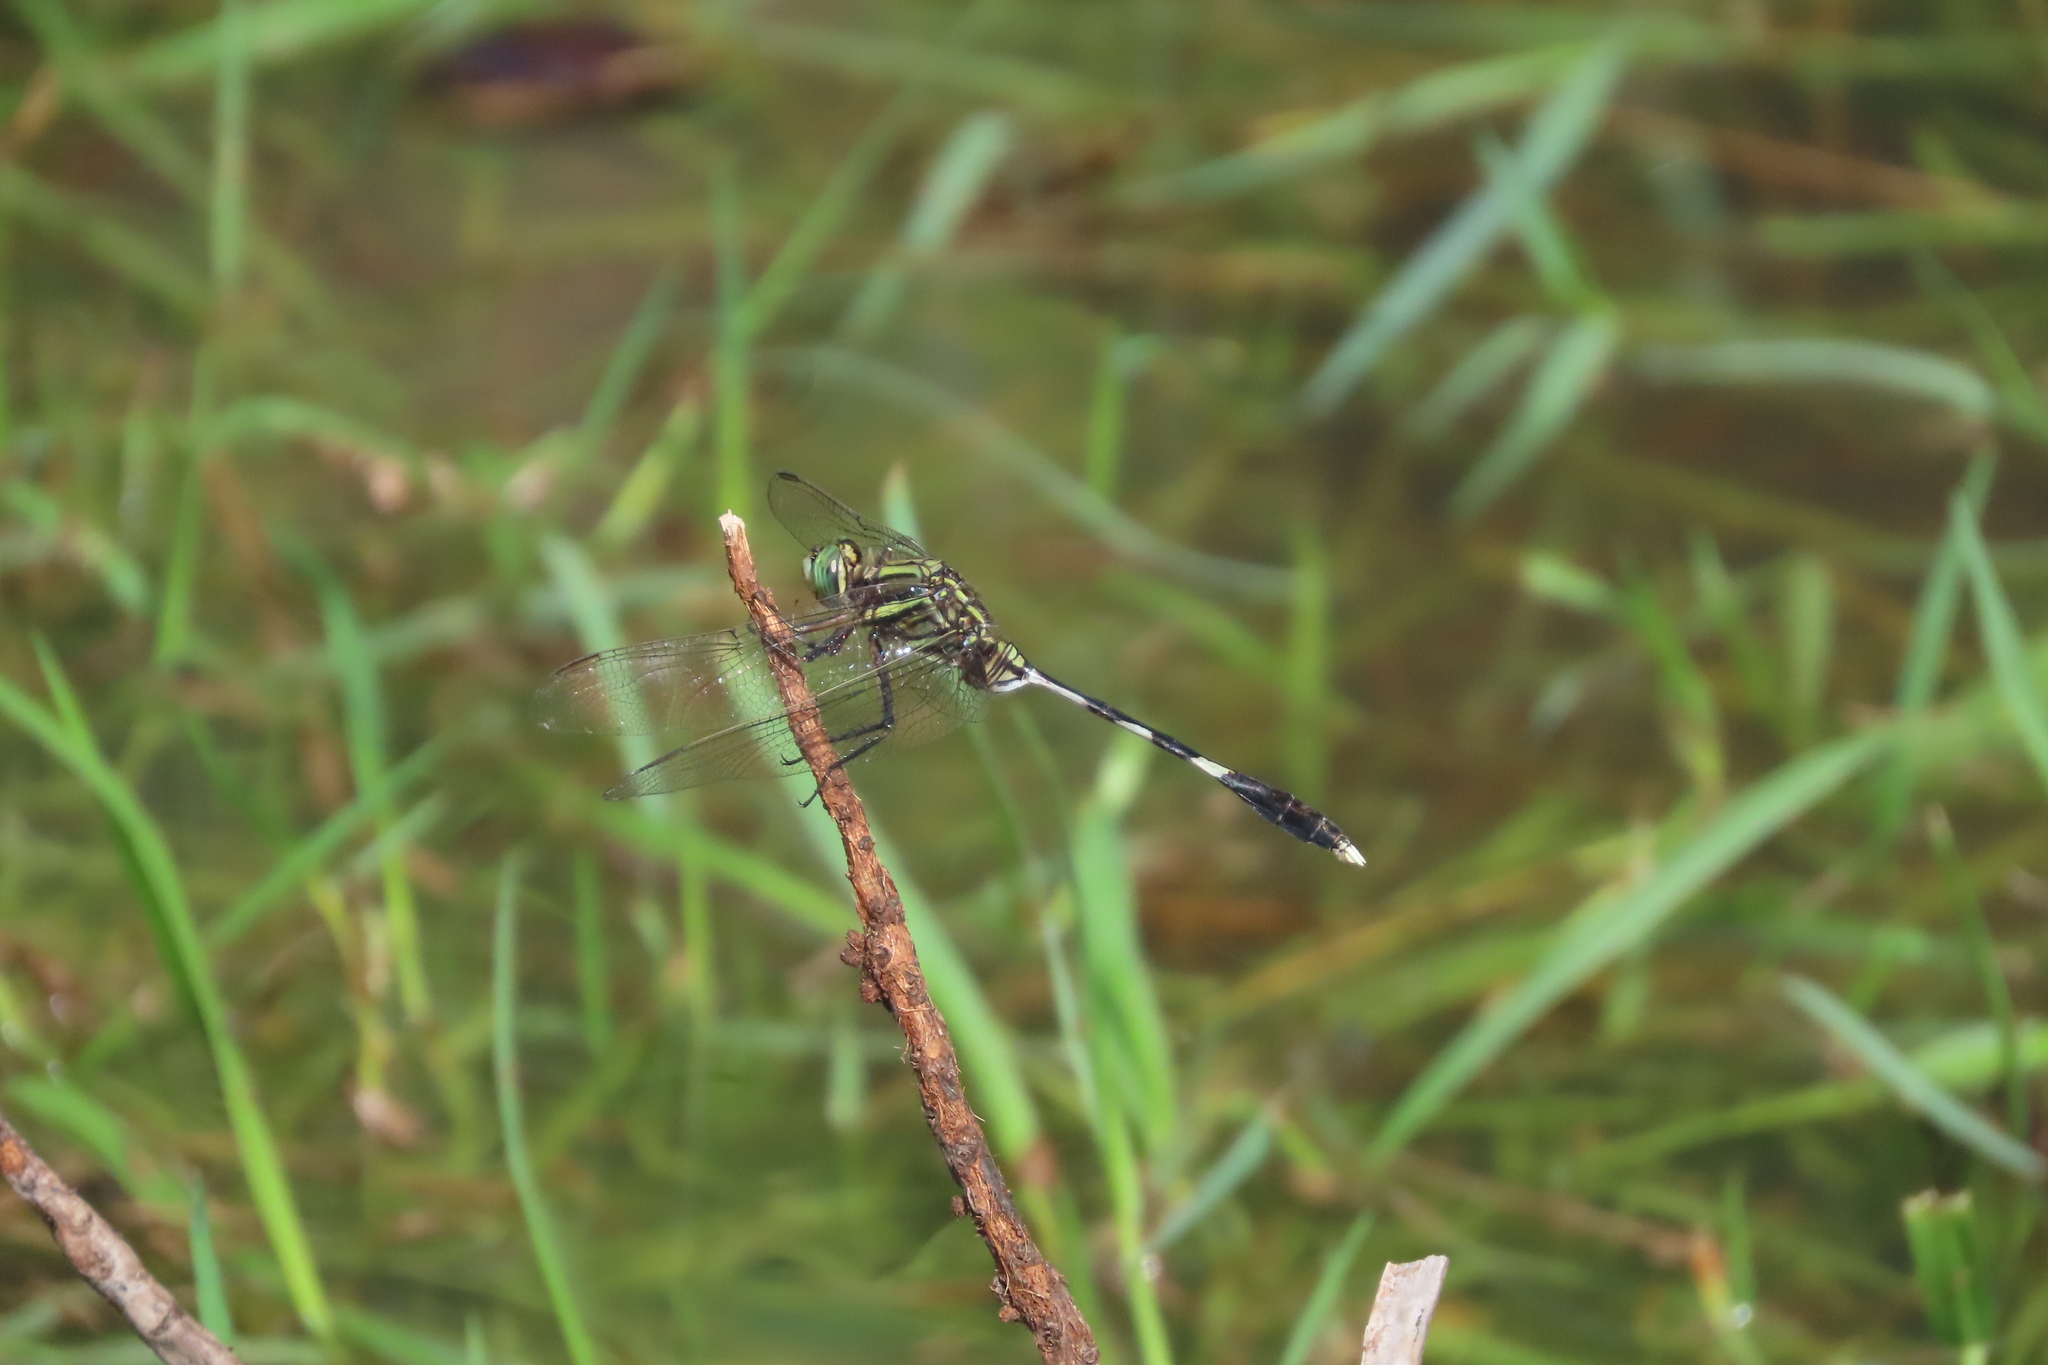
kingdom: Animalia
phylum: Arthropoda
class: Insecta
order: Odonata
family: Libellulidae
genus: Orthetrum
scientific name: Orthetrum sabina
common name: Slender skimmer
